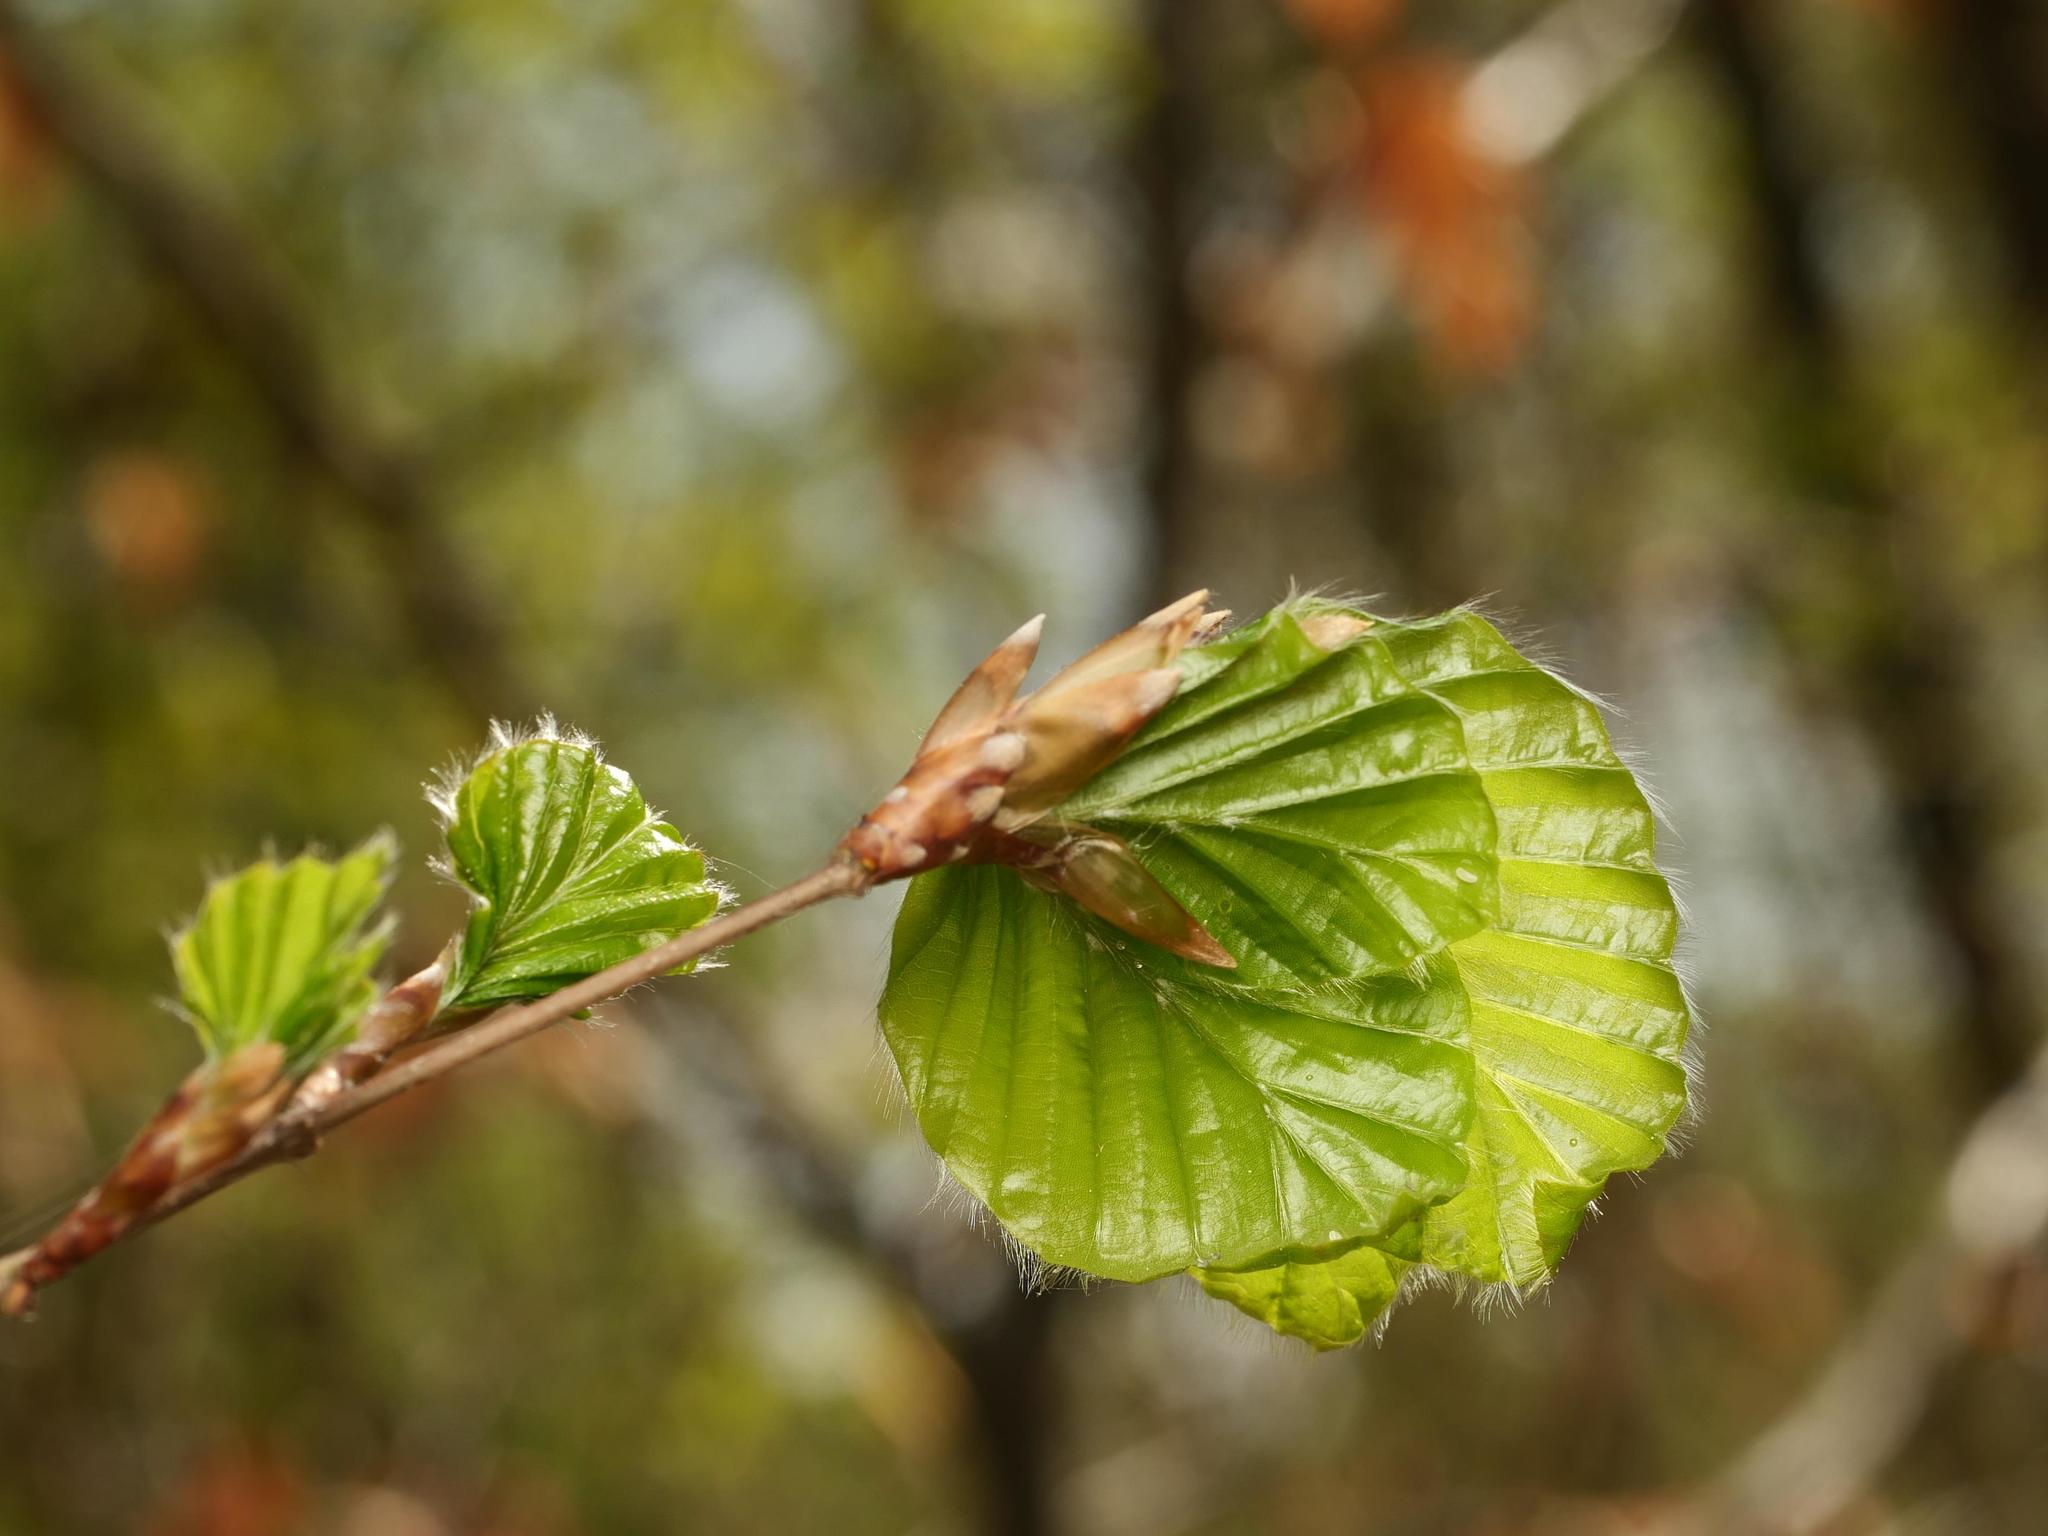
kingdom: Plantae
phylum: Tracheophyta
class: Magnoliopsida
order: Fagales
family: Fagaceae
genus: Fagus
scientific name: Fagus sylvatica
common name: Beech
